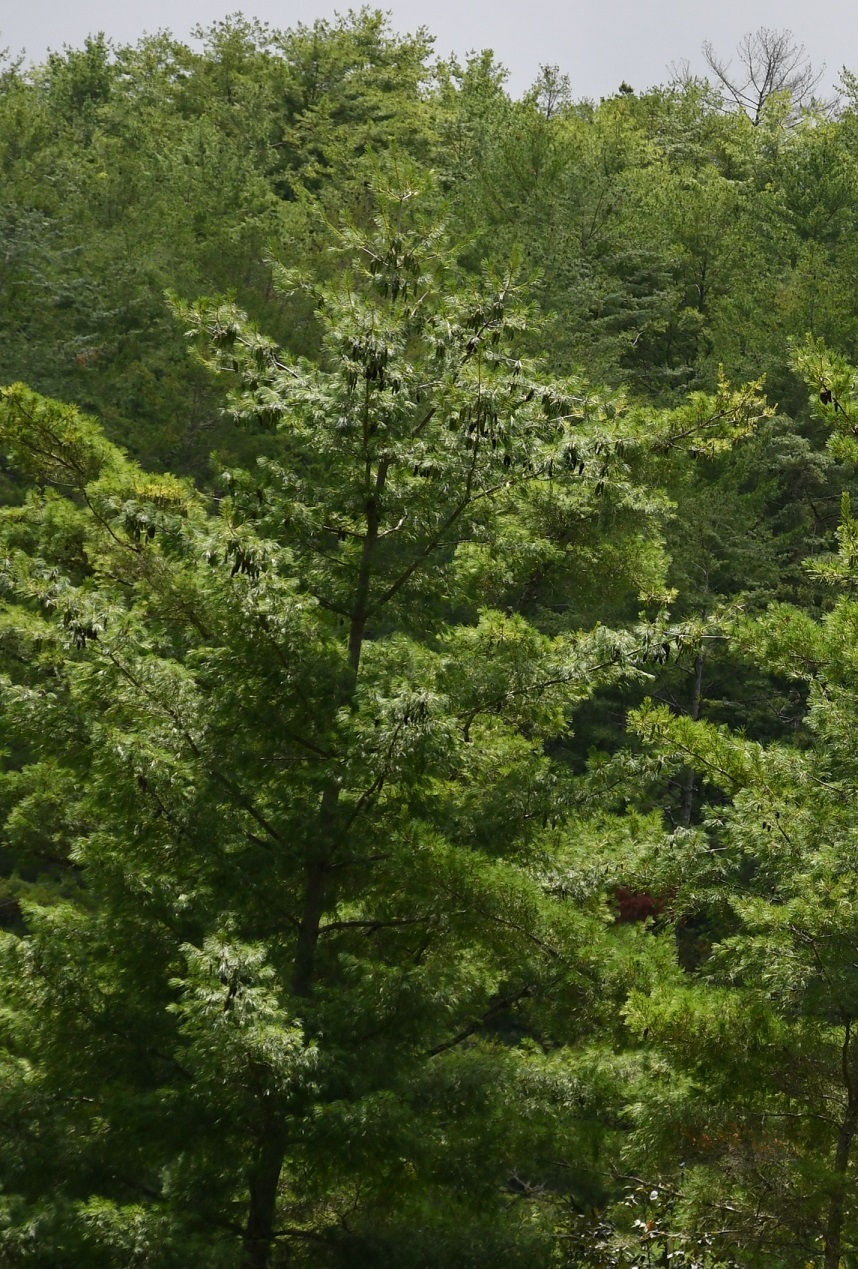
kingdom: Plantae
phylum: Tracheophyta
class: Pinopsida
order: Pinales
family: Pinaceae
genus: Pinus
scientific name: Pinus strobus
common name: Weymouth pine
